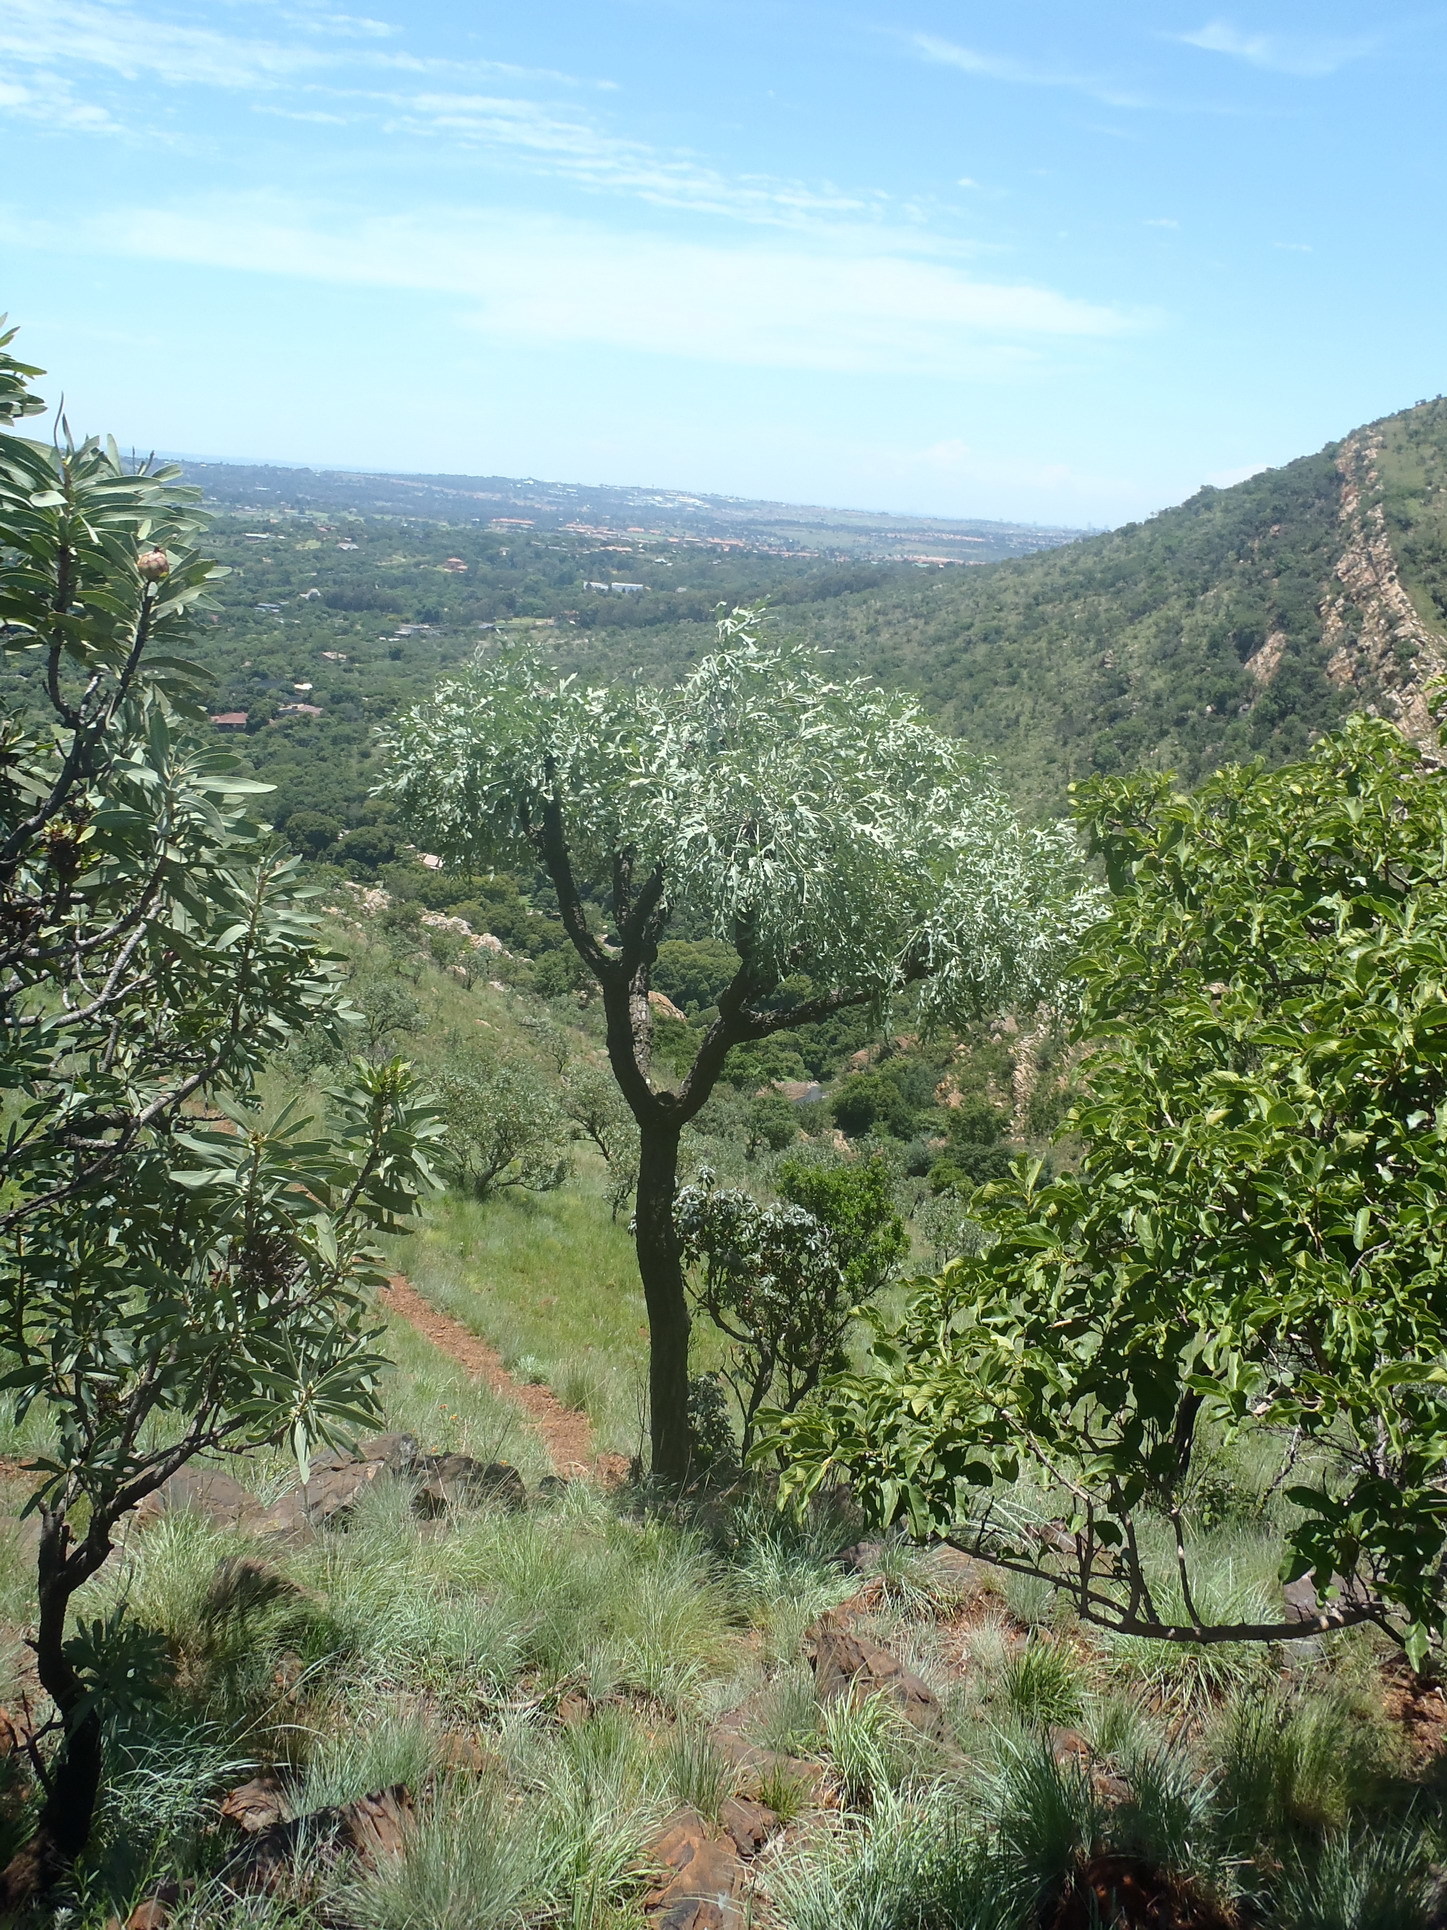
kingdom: Plantae
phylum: Tracheophyta
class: Magnoliopsida
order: Apiales
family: Araliaceae
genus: Cussonia
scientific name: Cussonia paniculata
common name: Cabbagetree
